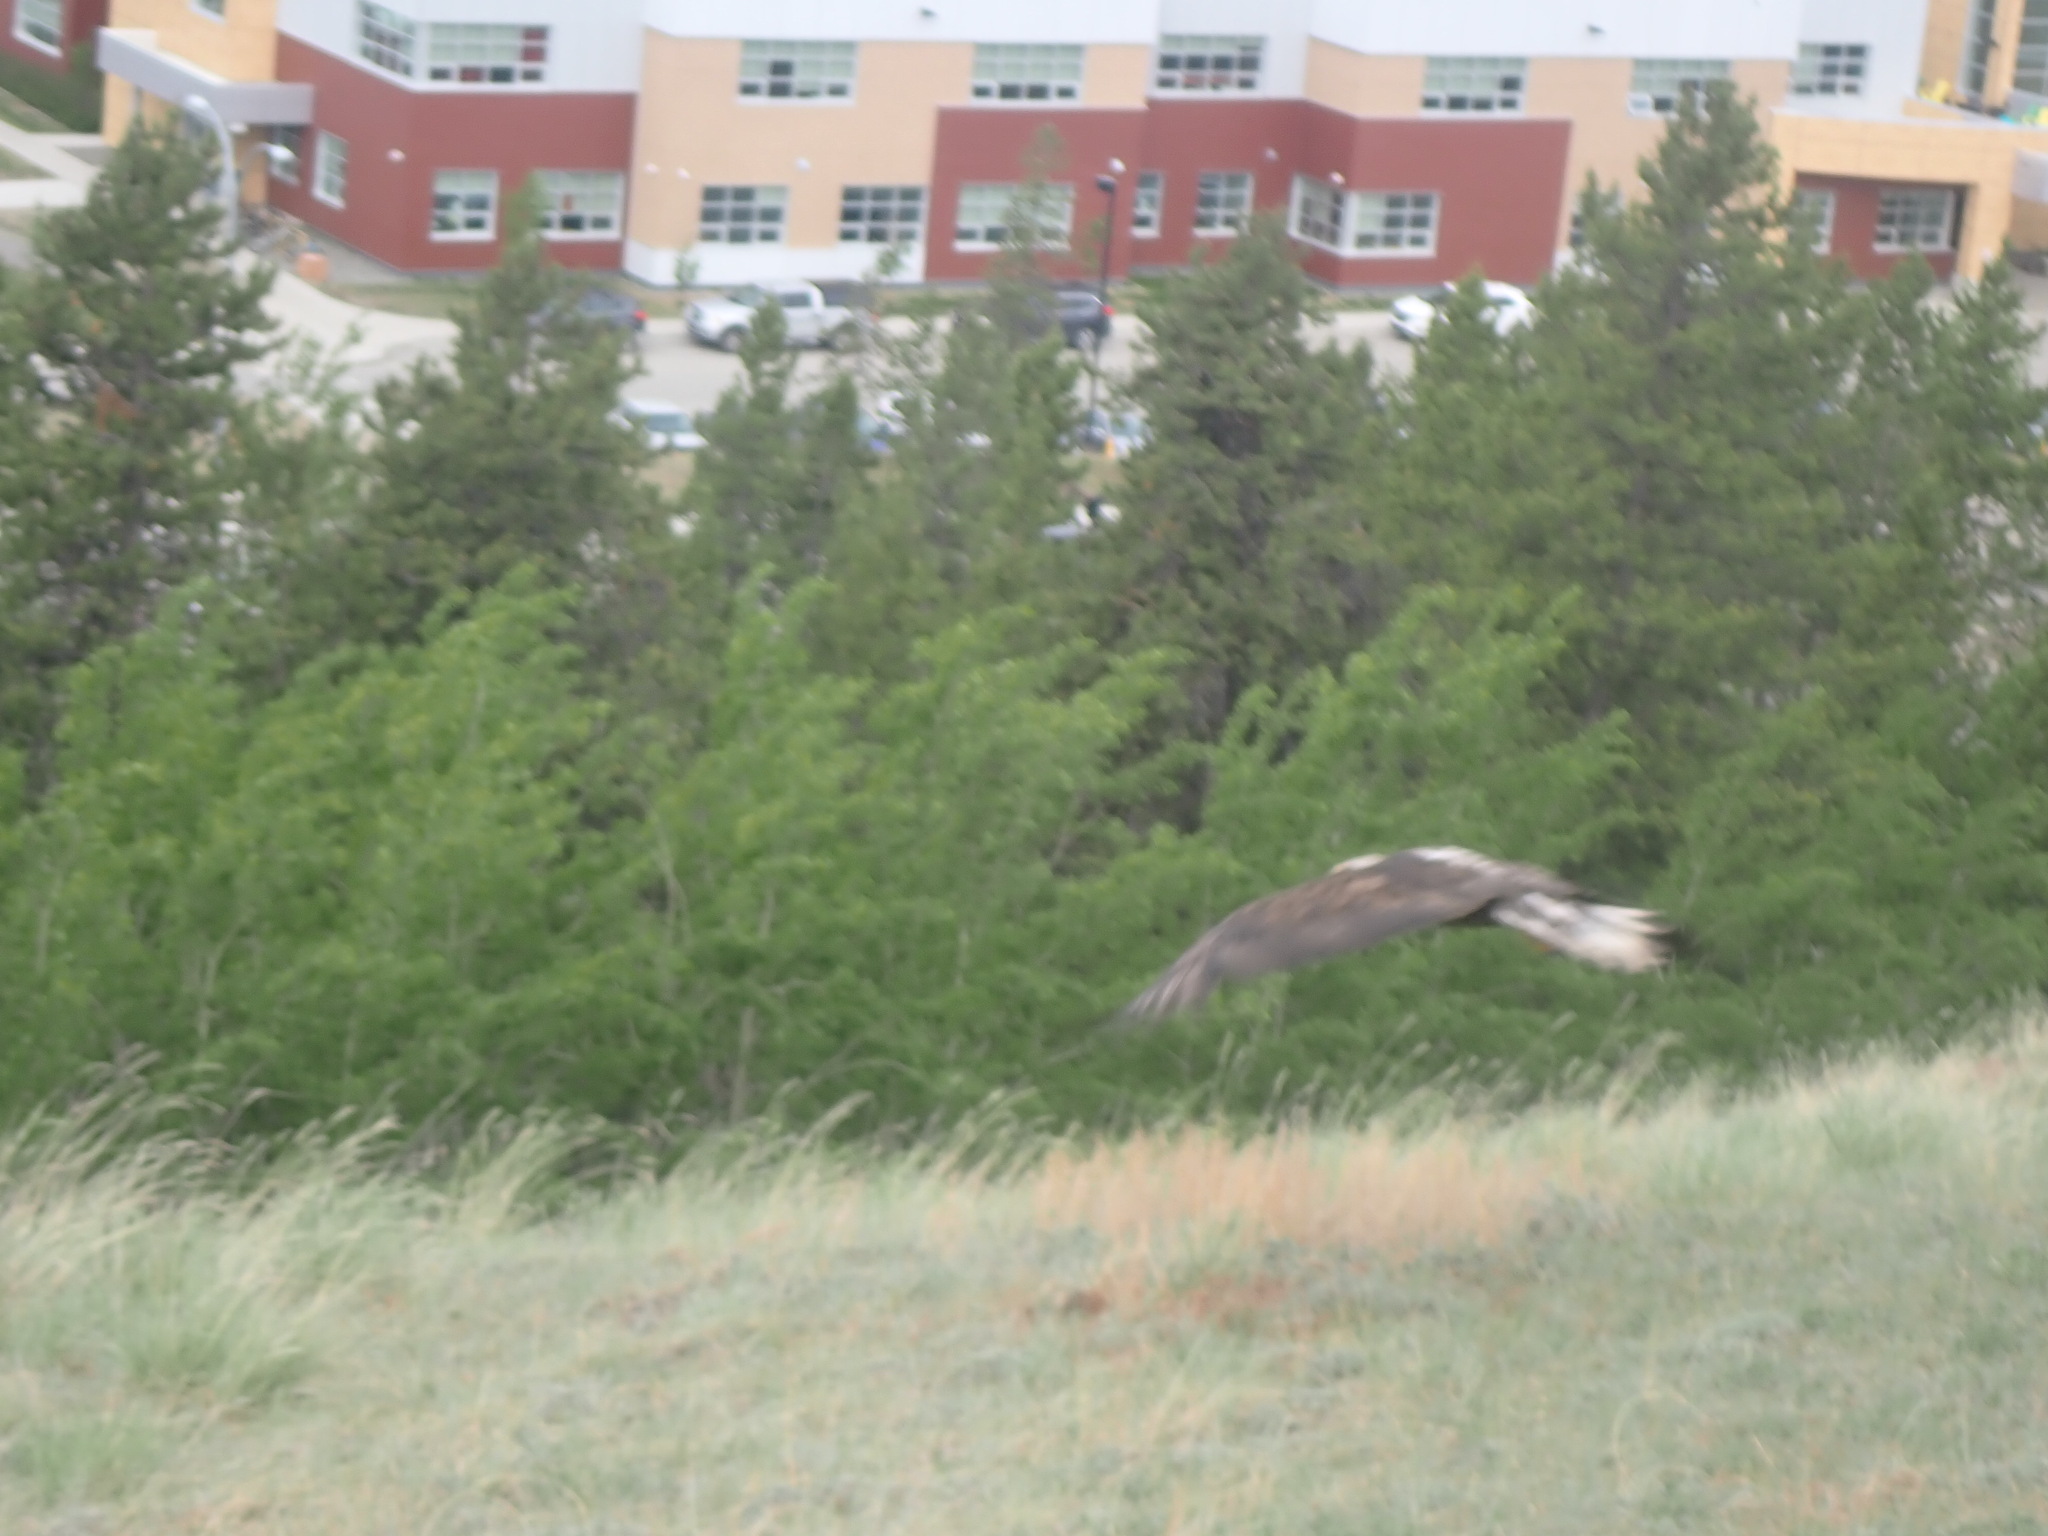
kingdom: Animalia
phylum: Chordata
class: Aves
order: Accipitriformes
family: Accipitridae
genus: Haliaeetus
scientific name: Haliaeetus leucocephalus
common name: Bald eagle
